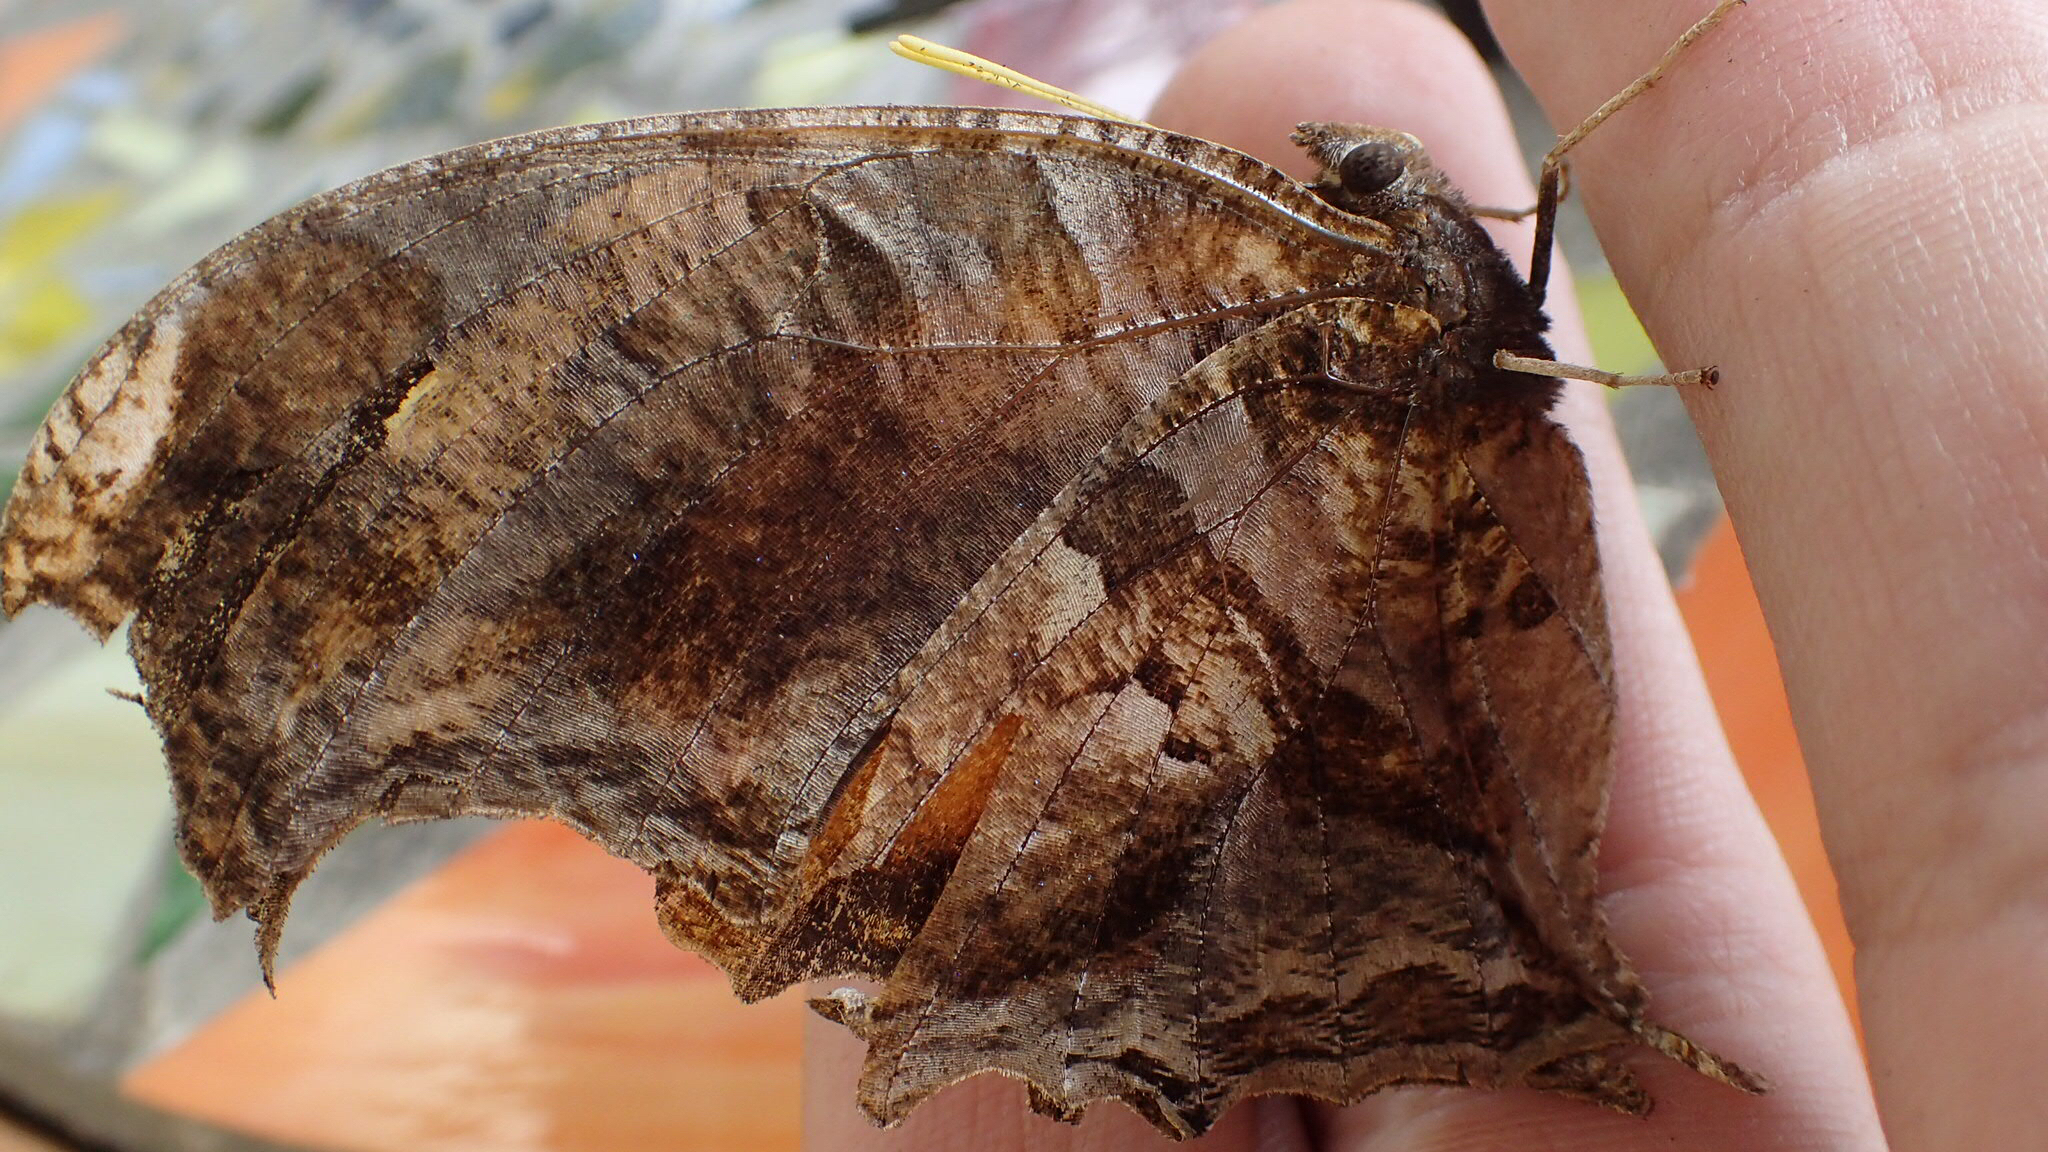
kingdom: Animalia
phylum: Arthropoda
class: Insecta
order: Lepidoptera
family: Nymphalidae
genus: Consul
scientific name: Consul fabius
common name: Tiger leafwing
